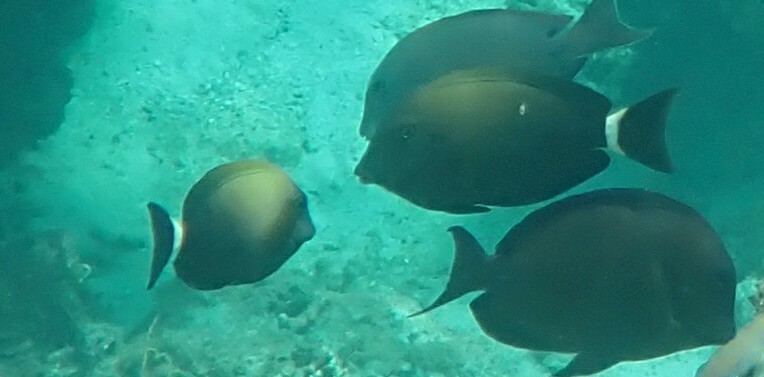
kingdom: Animalia
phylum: Chordata
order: Perciformes
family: Acanthuridae
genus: Acanthurus
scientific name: Acanthurus auranticavus
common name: Orange-socket surgeonfish
